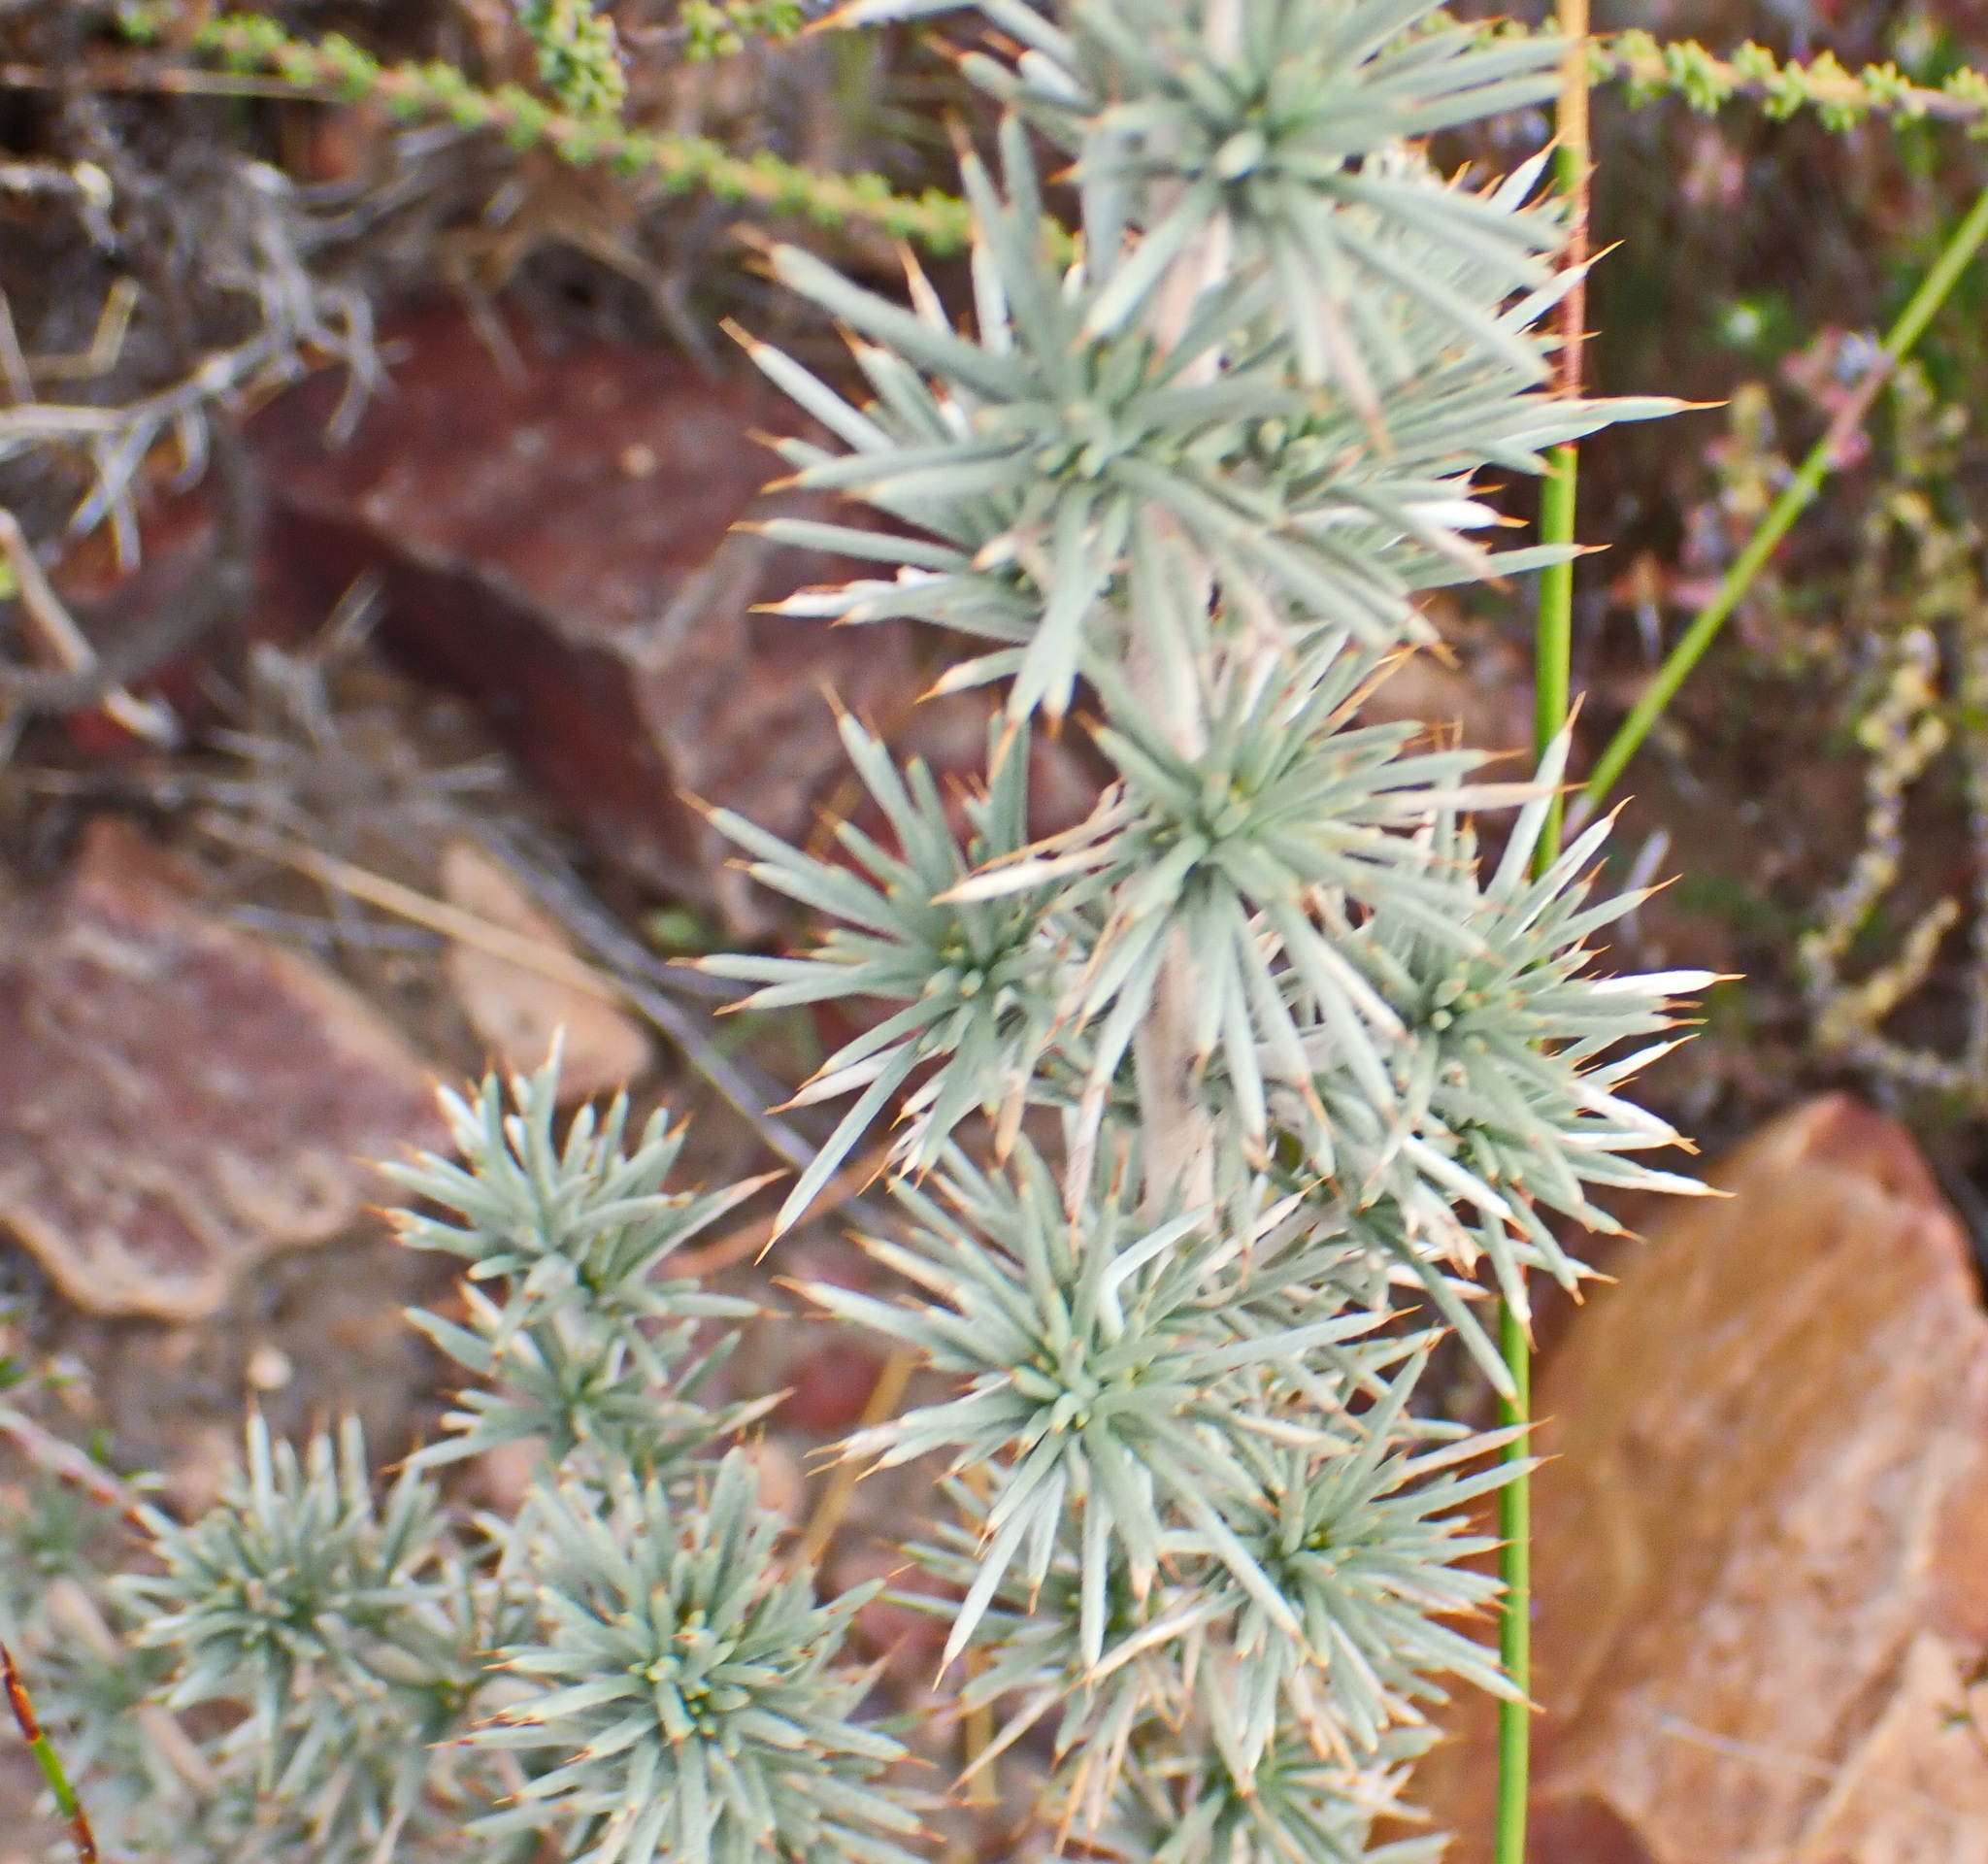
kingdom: Plantae
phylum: Tracheophyta
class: Magnoliopsida
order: Fabales
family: Fabaceae
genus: Aspalathus
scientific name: Aspalathus hirta
